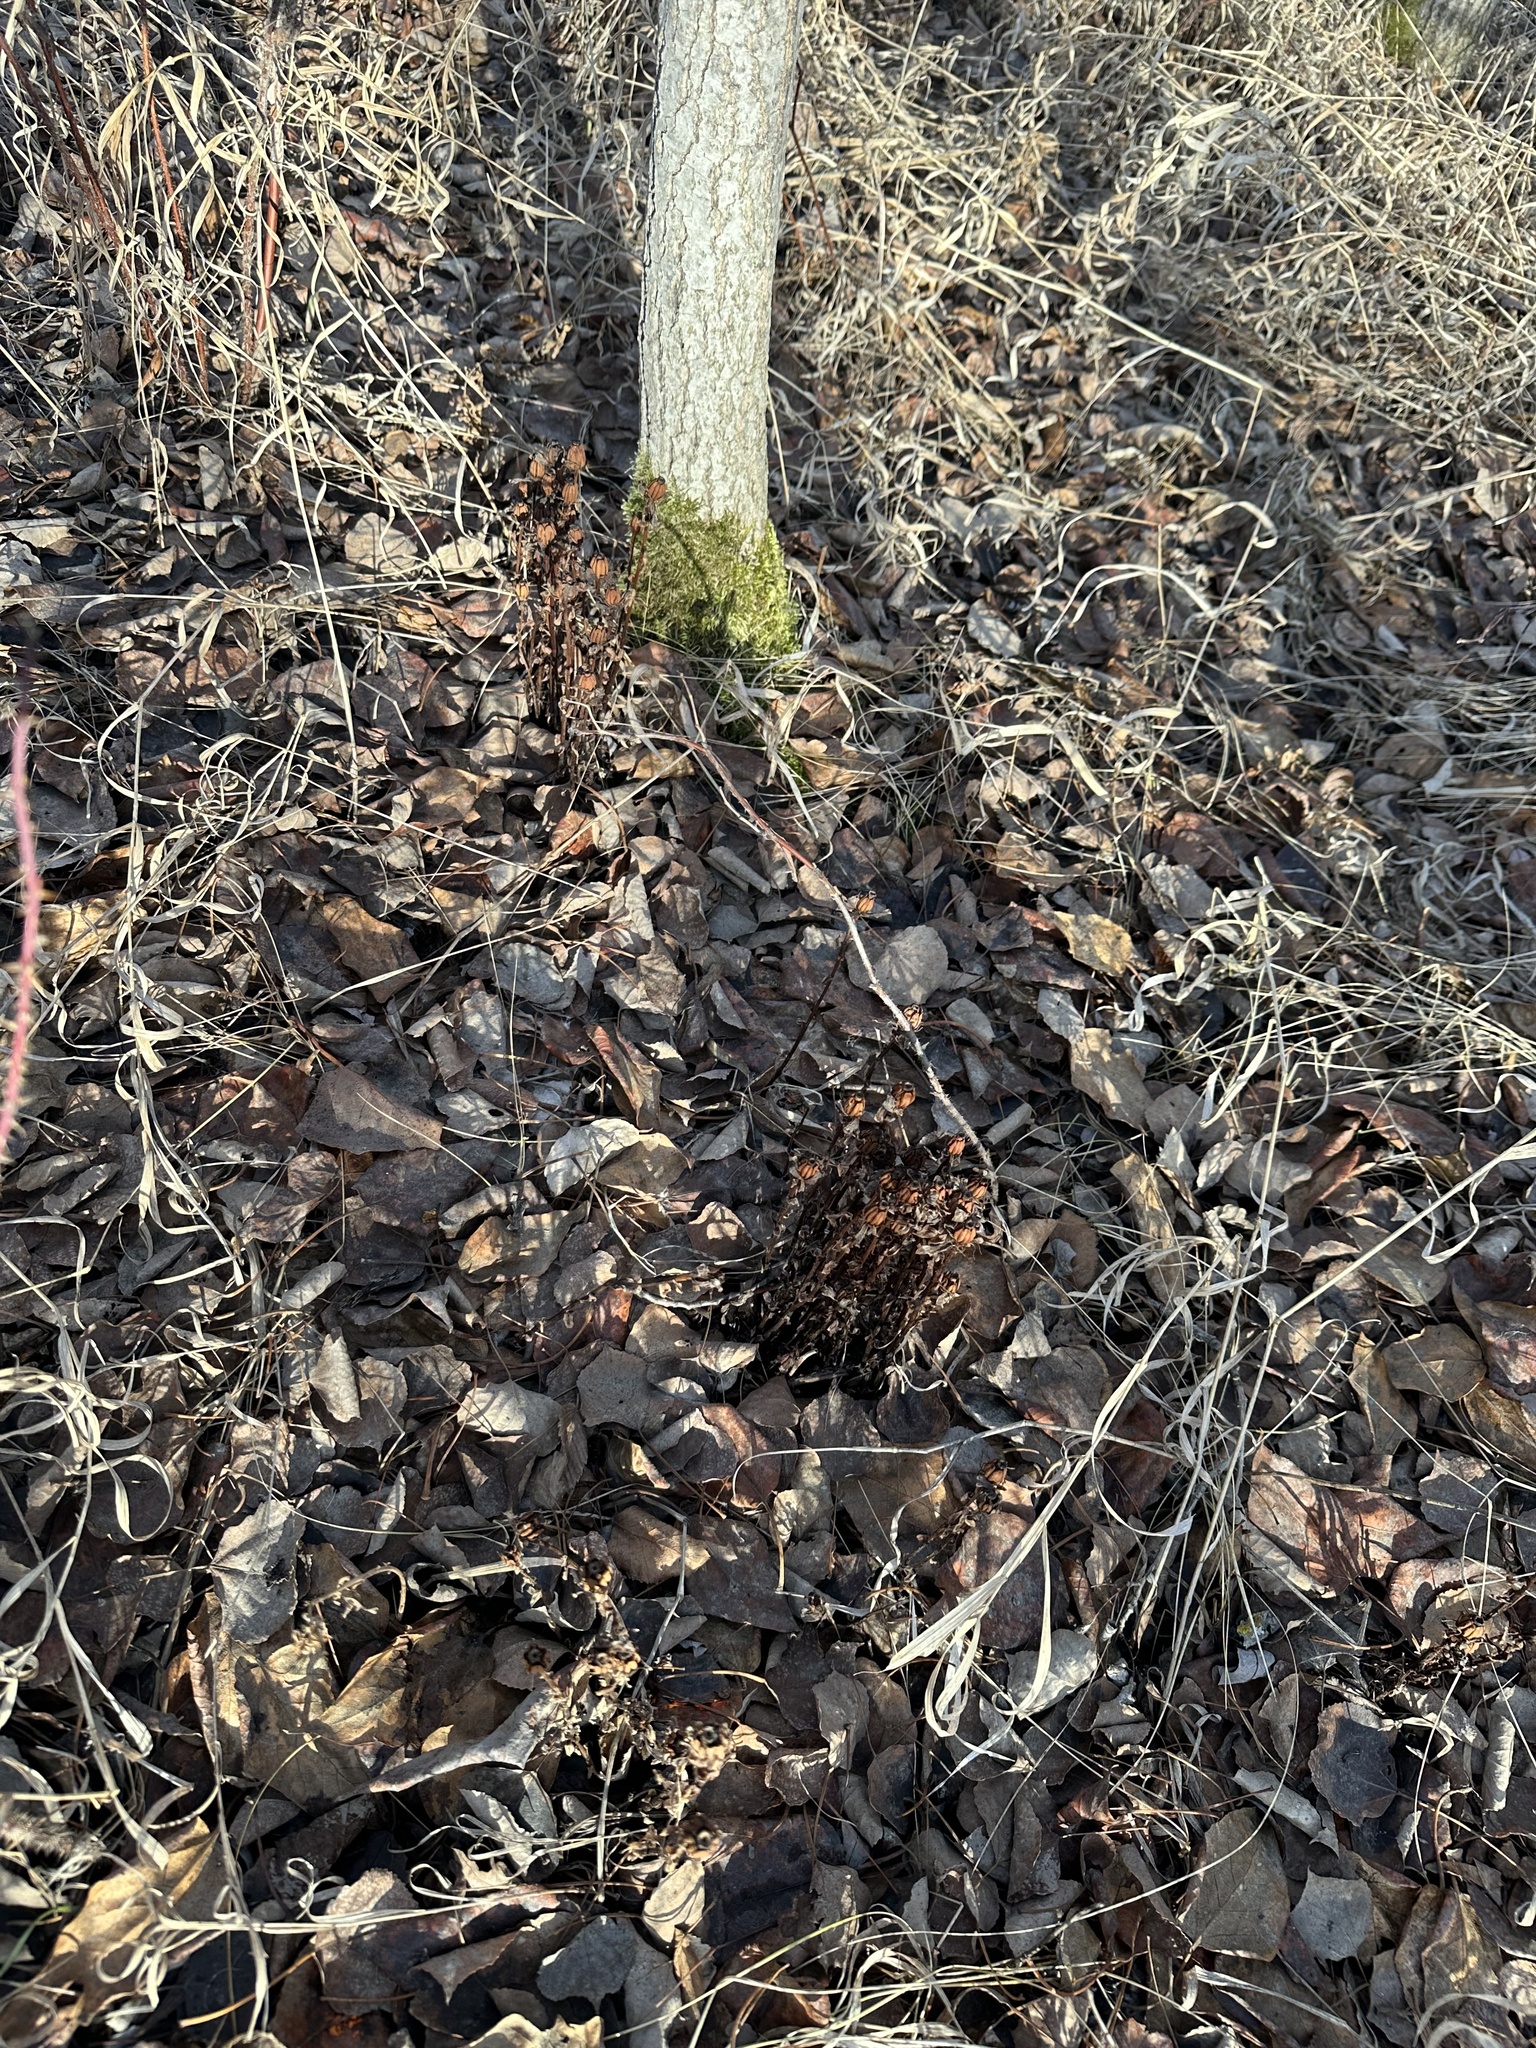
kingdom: Plantae
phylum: Tracheophyta
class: Magnoliopsida
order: Ericales
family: Ericaceae
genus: Monotropa
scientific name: Monotropa uniflora
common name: Convulsion root
